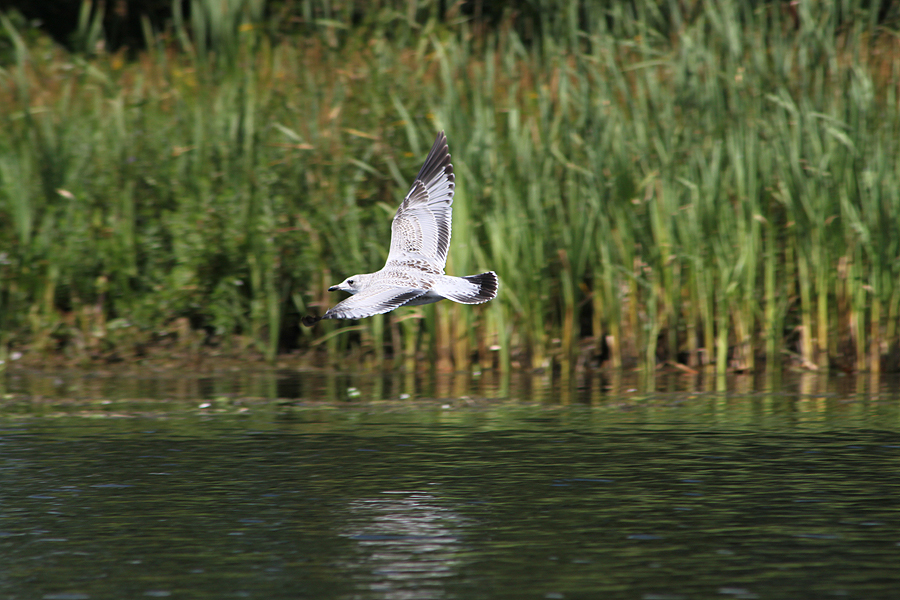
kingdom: Animalia
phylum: Chordata
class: Aves
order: Charadriiformes
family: Laridae
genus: Larus
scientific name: Larus delawarensis
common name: Ring-billed gull
